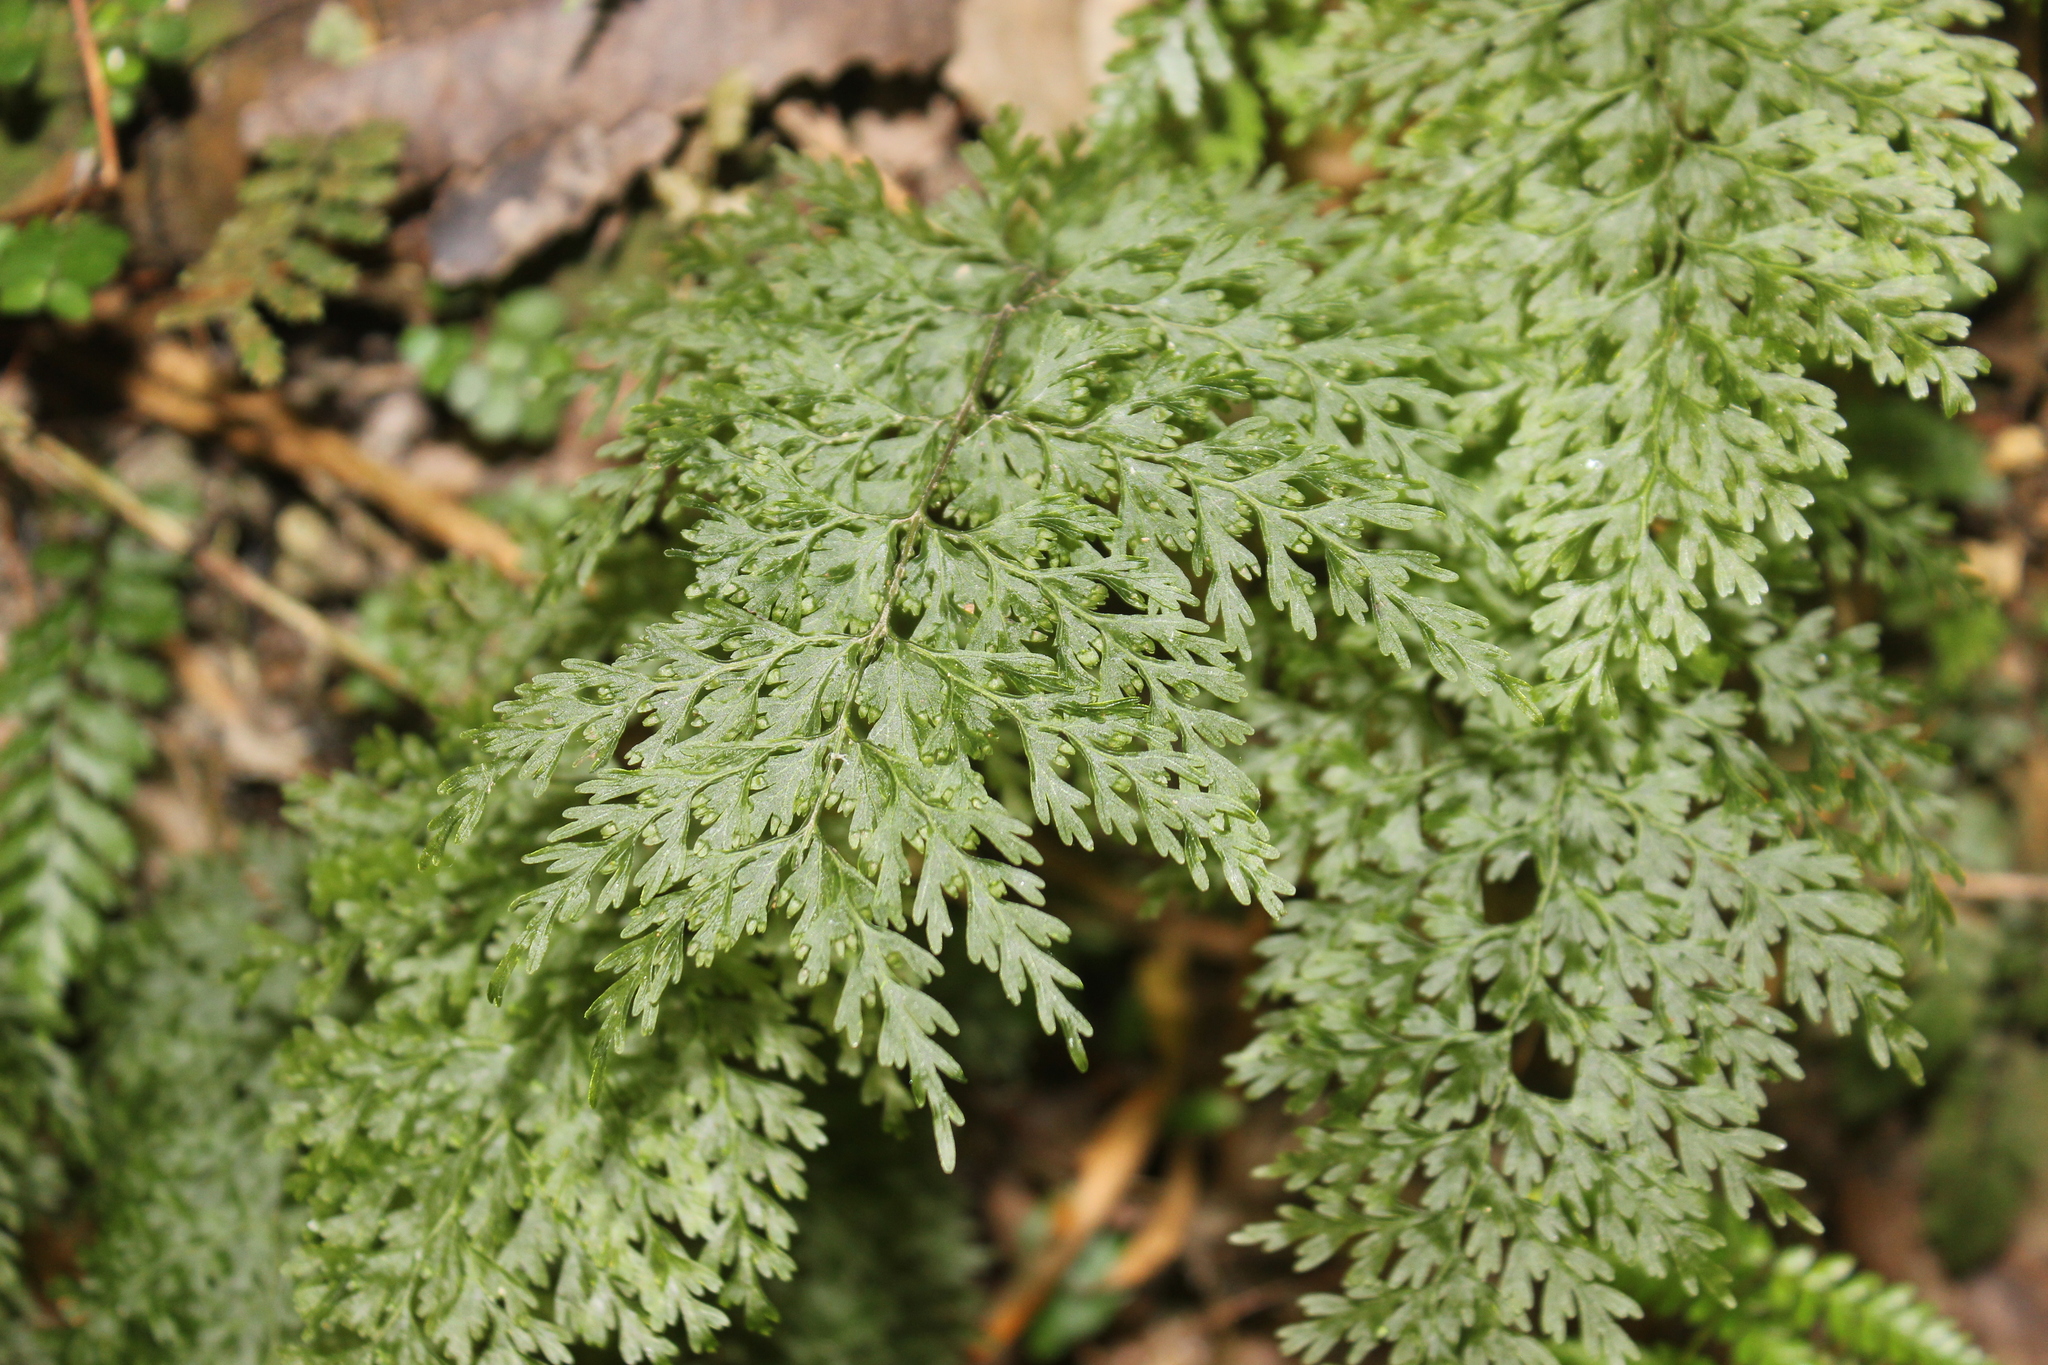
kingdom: Plantae
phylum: Tracheophyta
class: Polypodiopsida
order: Hymenophyllales
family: Hymenophyllaceae
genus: Hymenophyllum
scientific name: Hymenophyllum demissum
